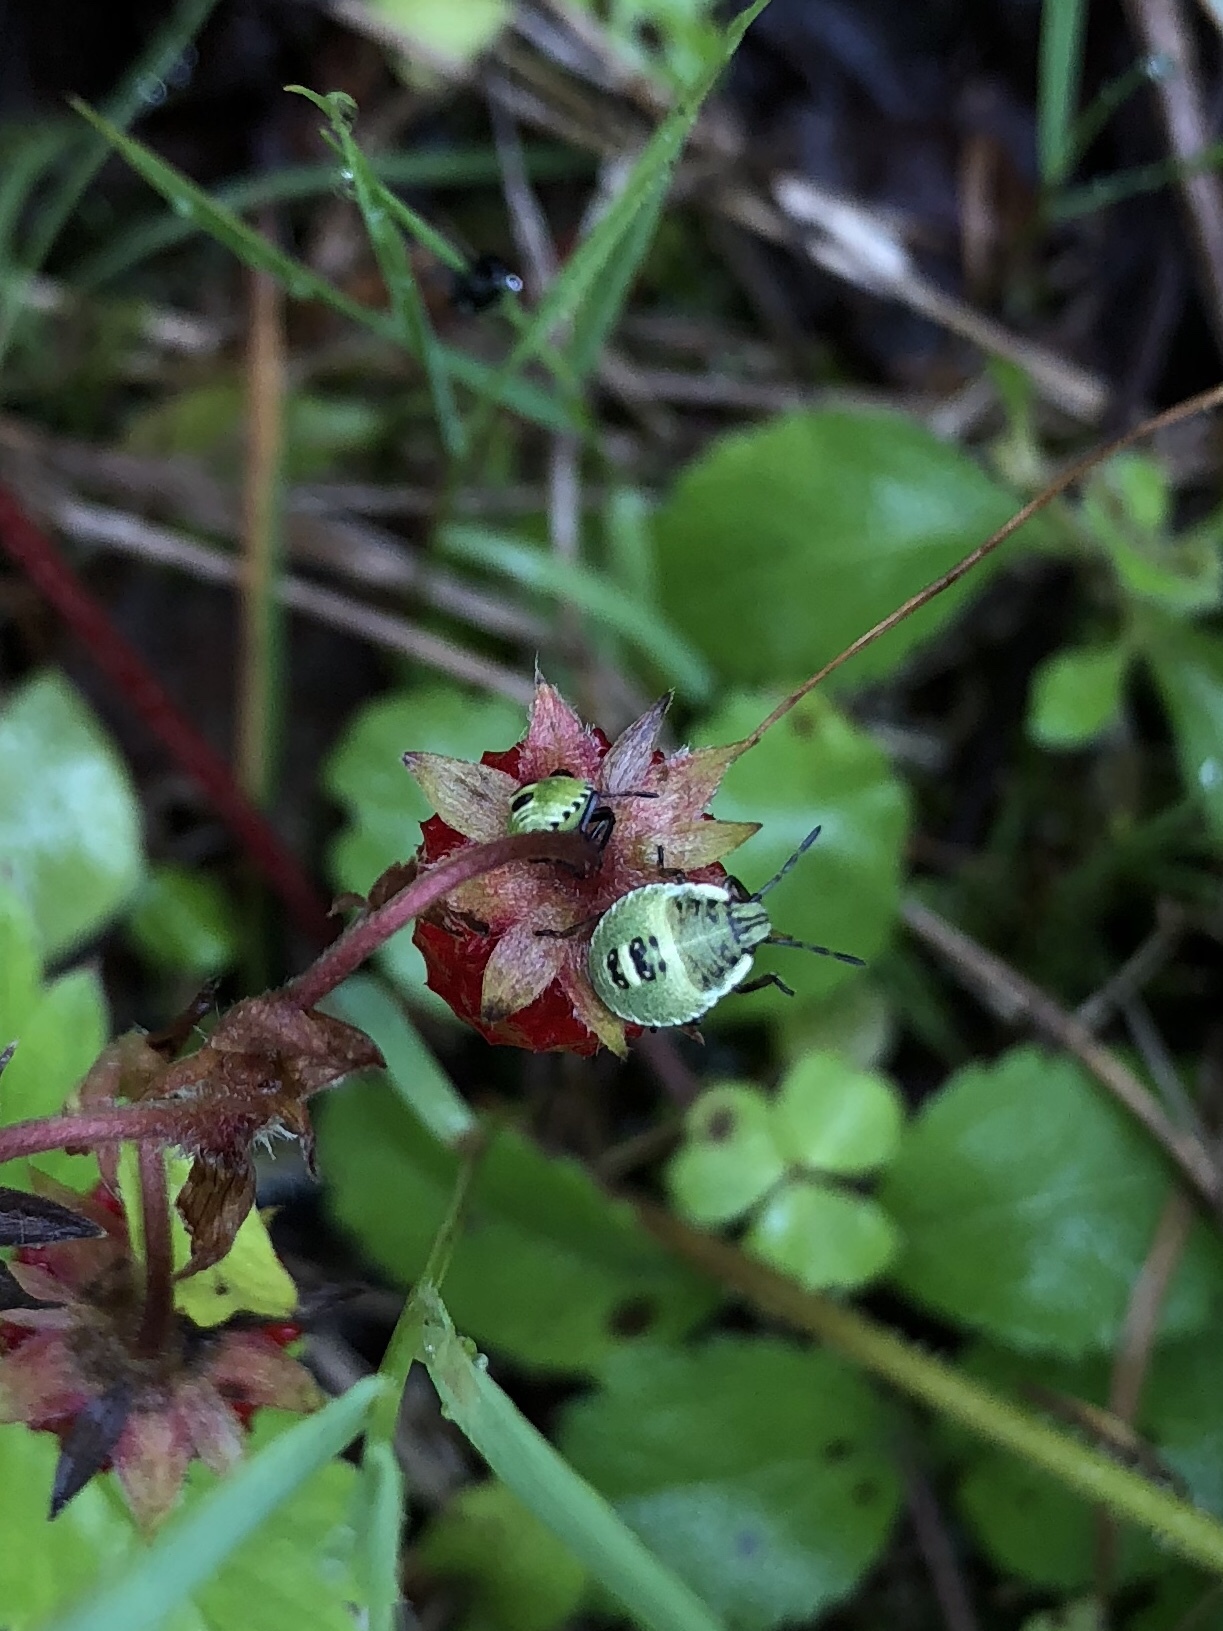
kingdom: Animalia
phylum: Arthropoda
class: Insecta
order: Hemiptera
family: Pentatomidae
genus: Palomena
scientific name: Palomena prasina
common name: Green shieldbug
